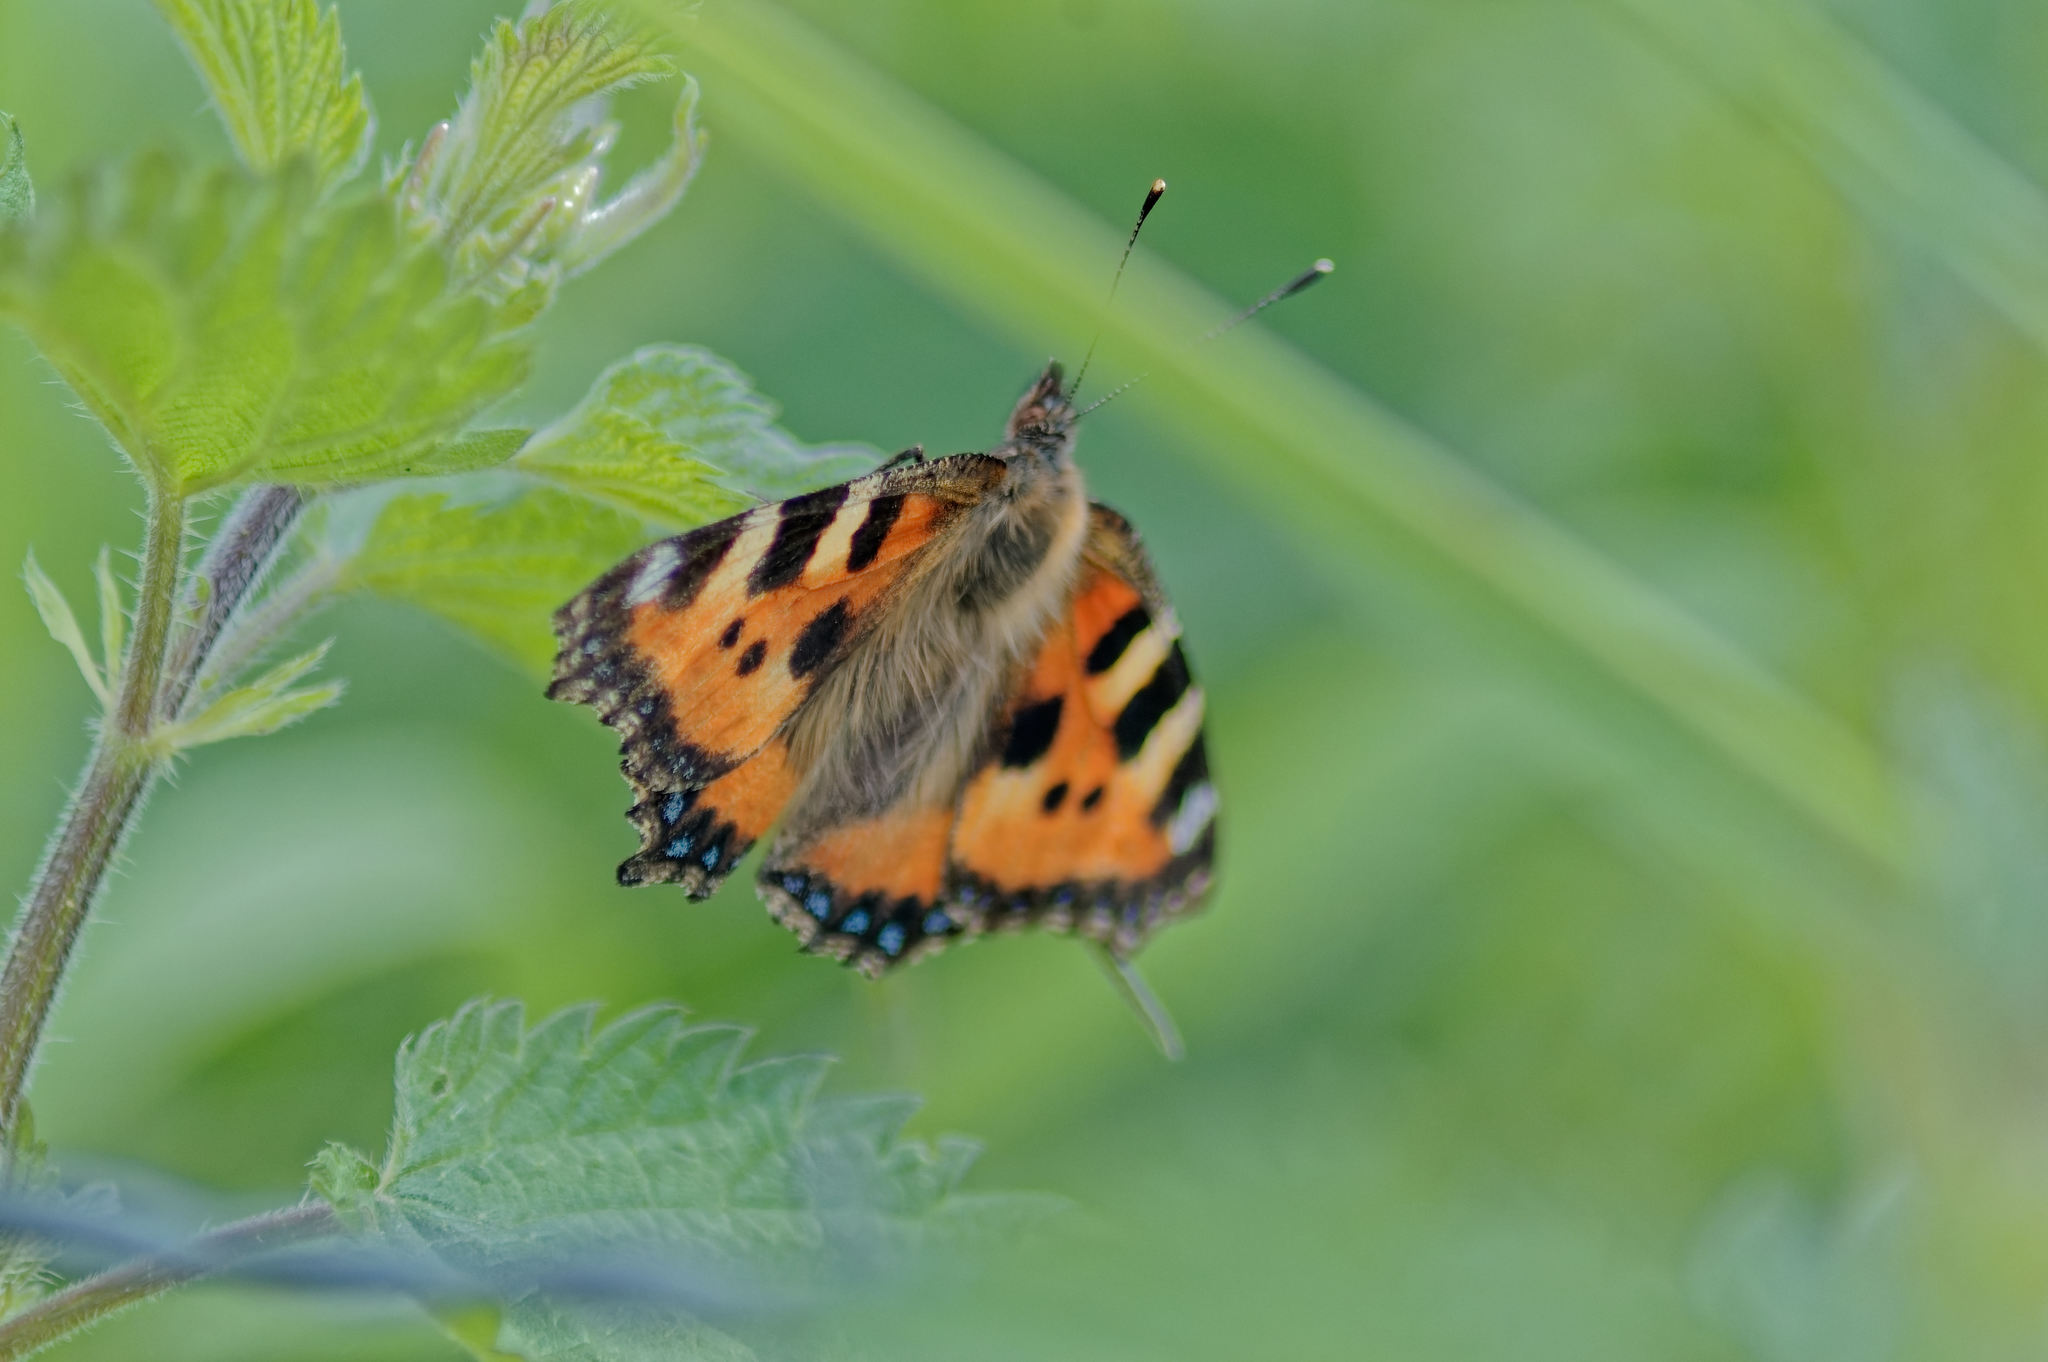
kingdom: Animalia
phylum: Arthropoda
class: Insecta
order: Lepidoptera
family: Nymphalidae
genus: Aglais
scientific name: Aglais urticae
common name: Small tortoiseshell
